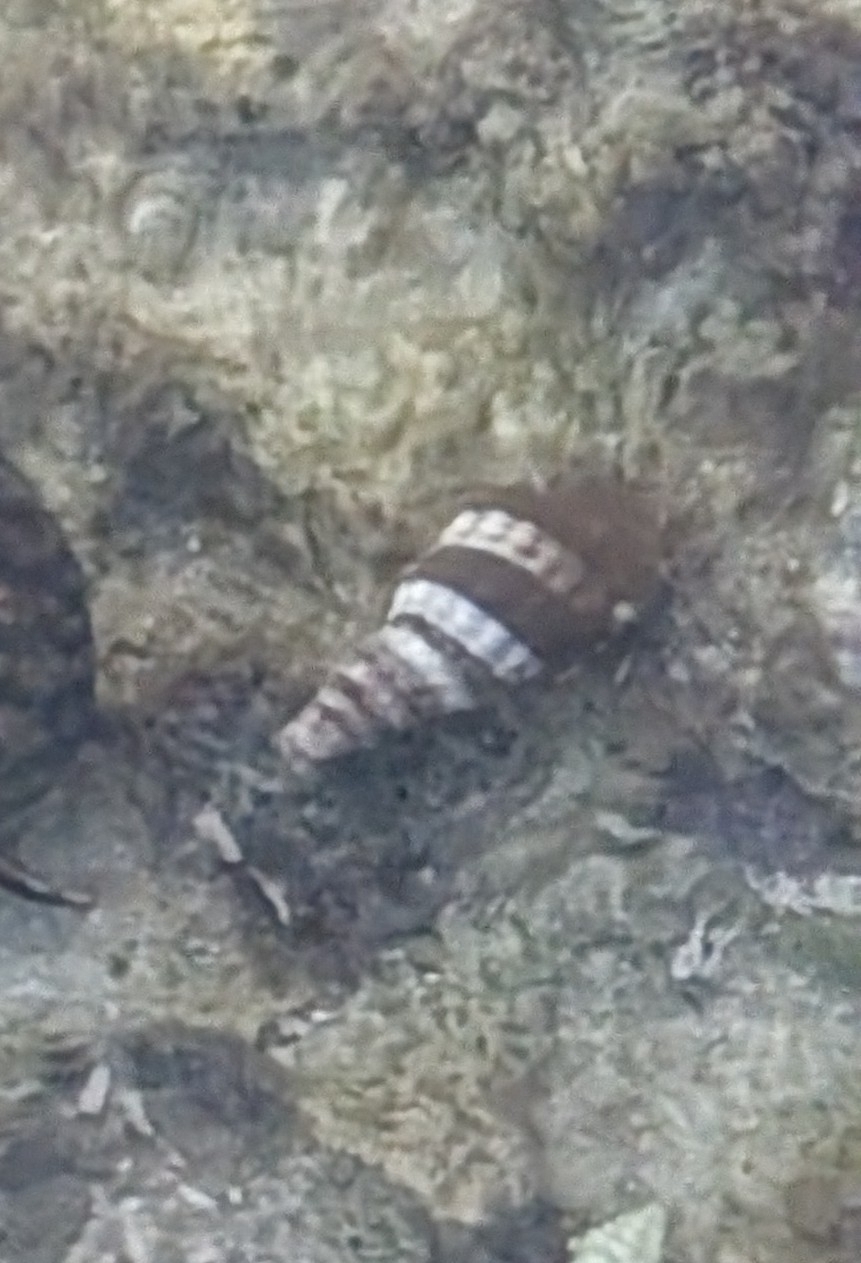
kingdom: Animalia
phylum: Mollusca
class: Gastropoda
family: Batillariidae
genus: Lampanella
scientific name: Lampanella minima
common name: West indian false cerith
